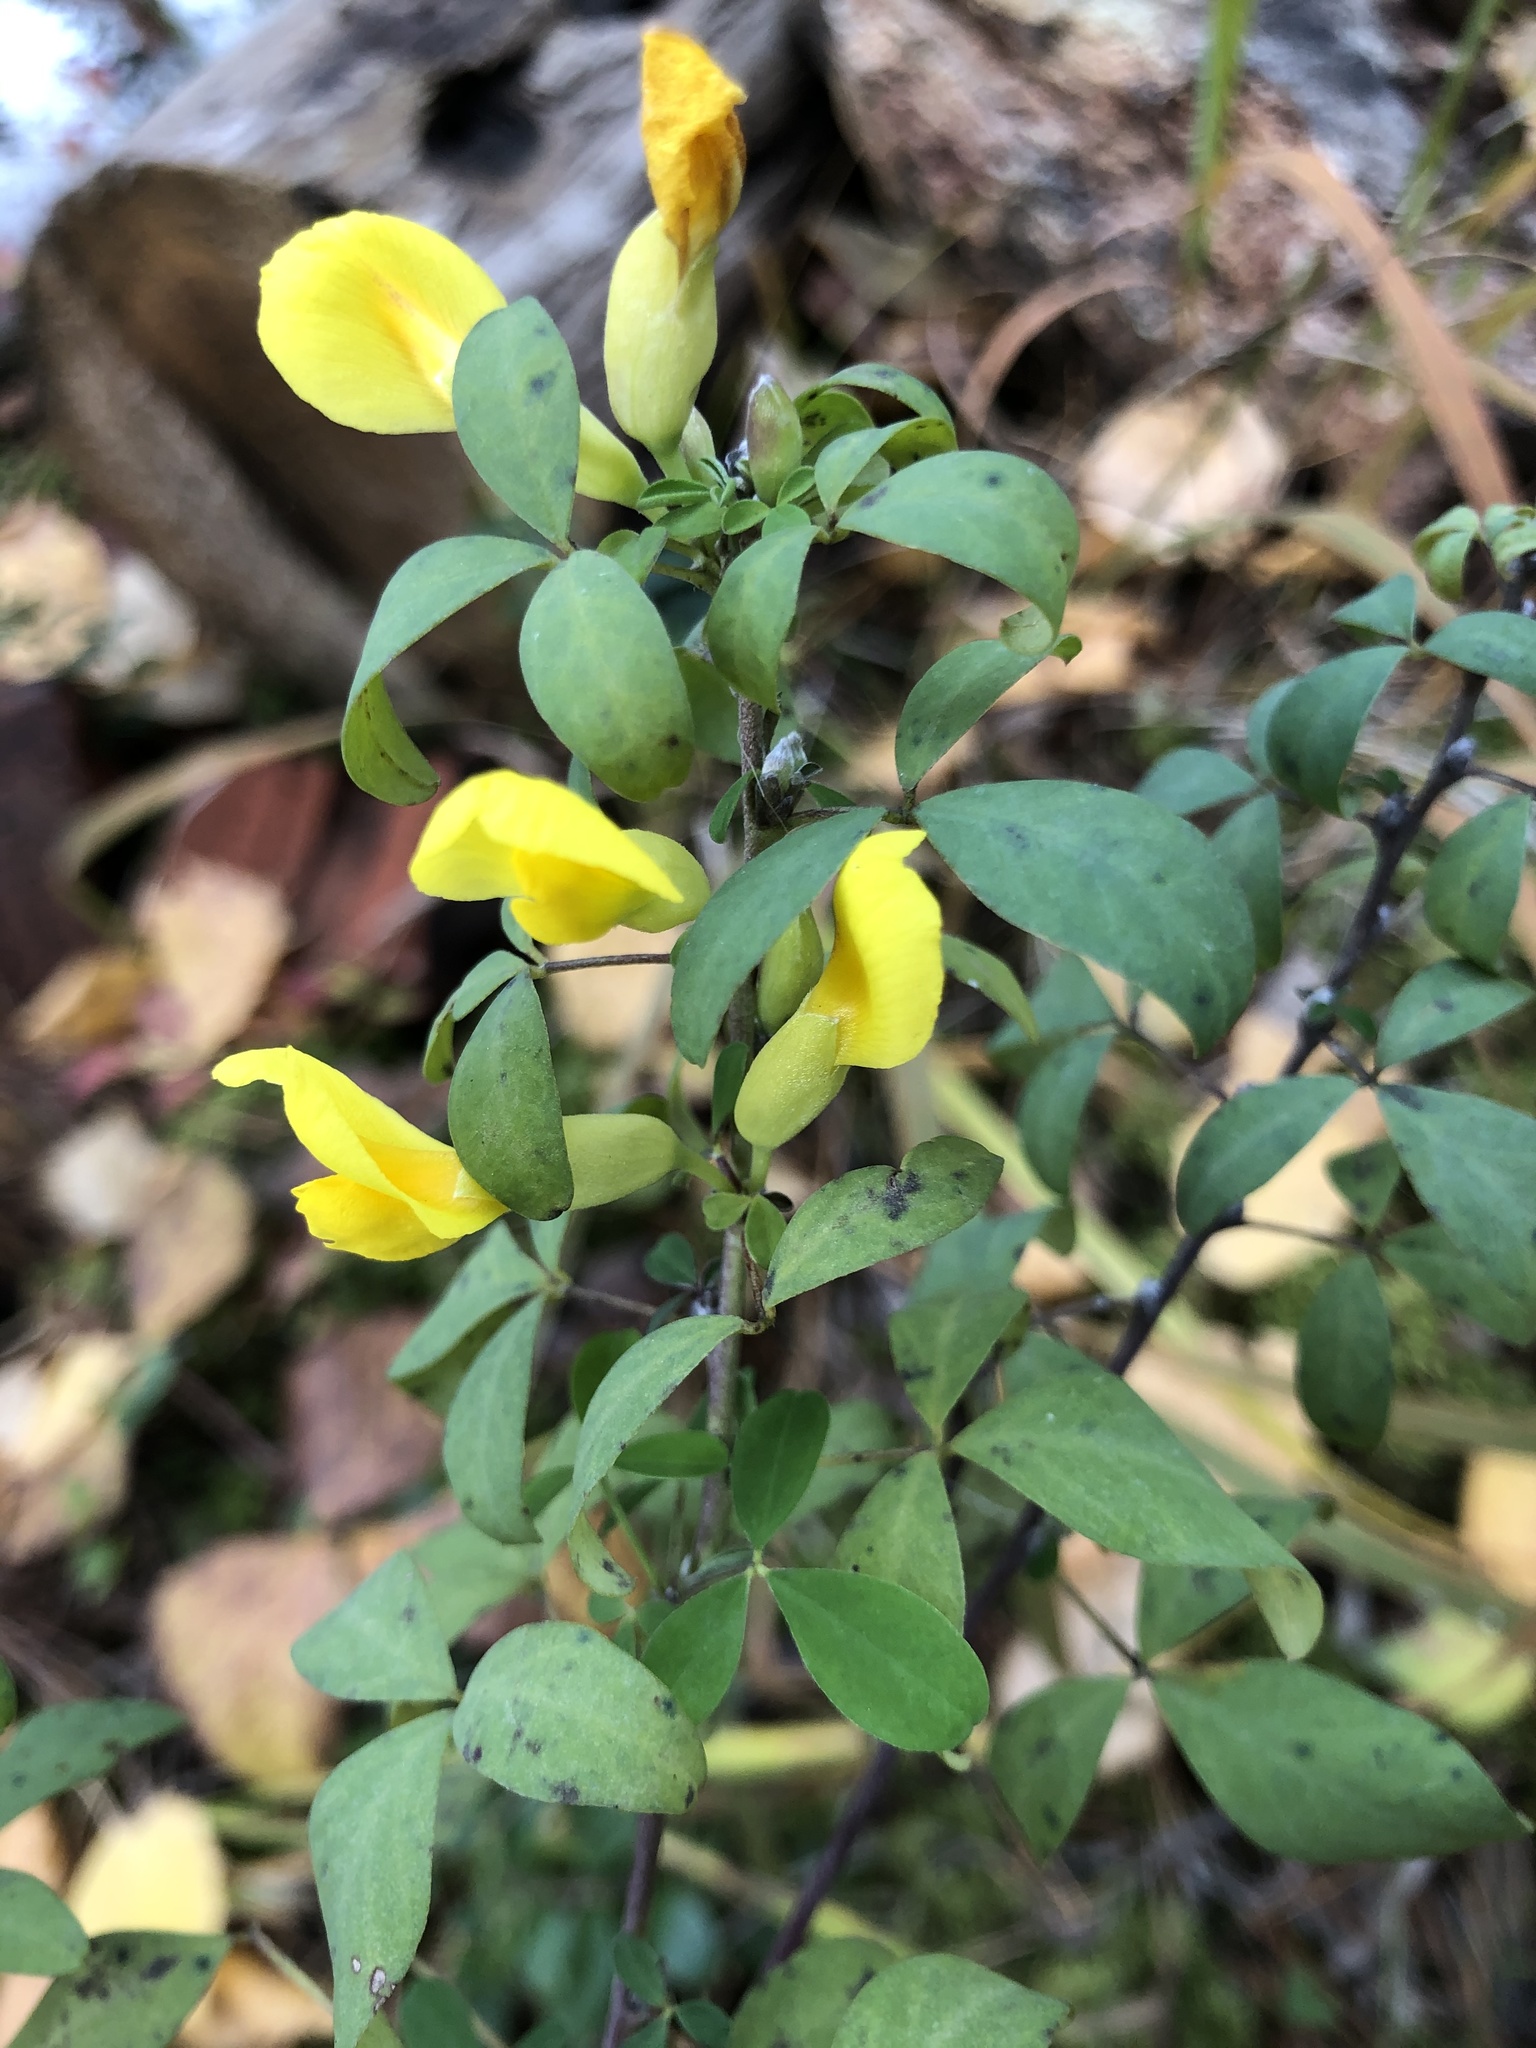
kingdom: Plantae
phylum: Tracheophyta
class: Magnoliopsida
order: Fabales
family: Fabaceae
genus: Chamaecytisus
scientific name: Chamaecytisus ruthenicus
